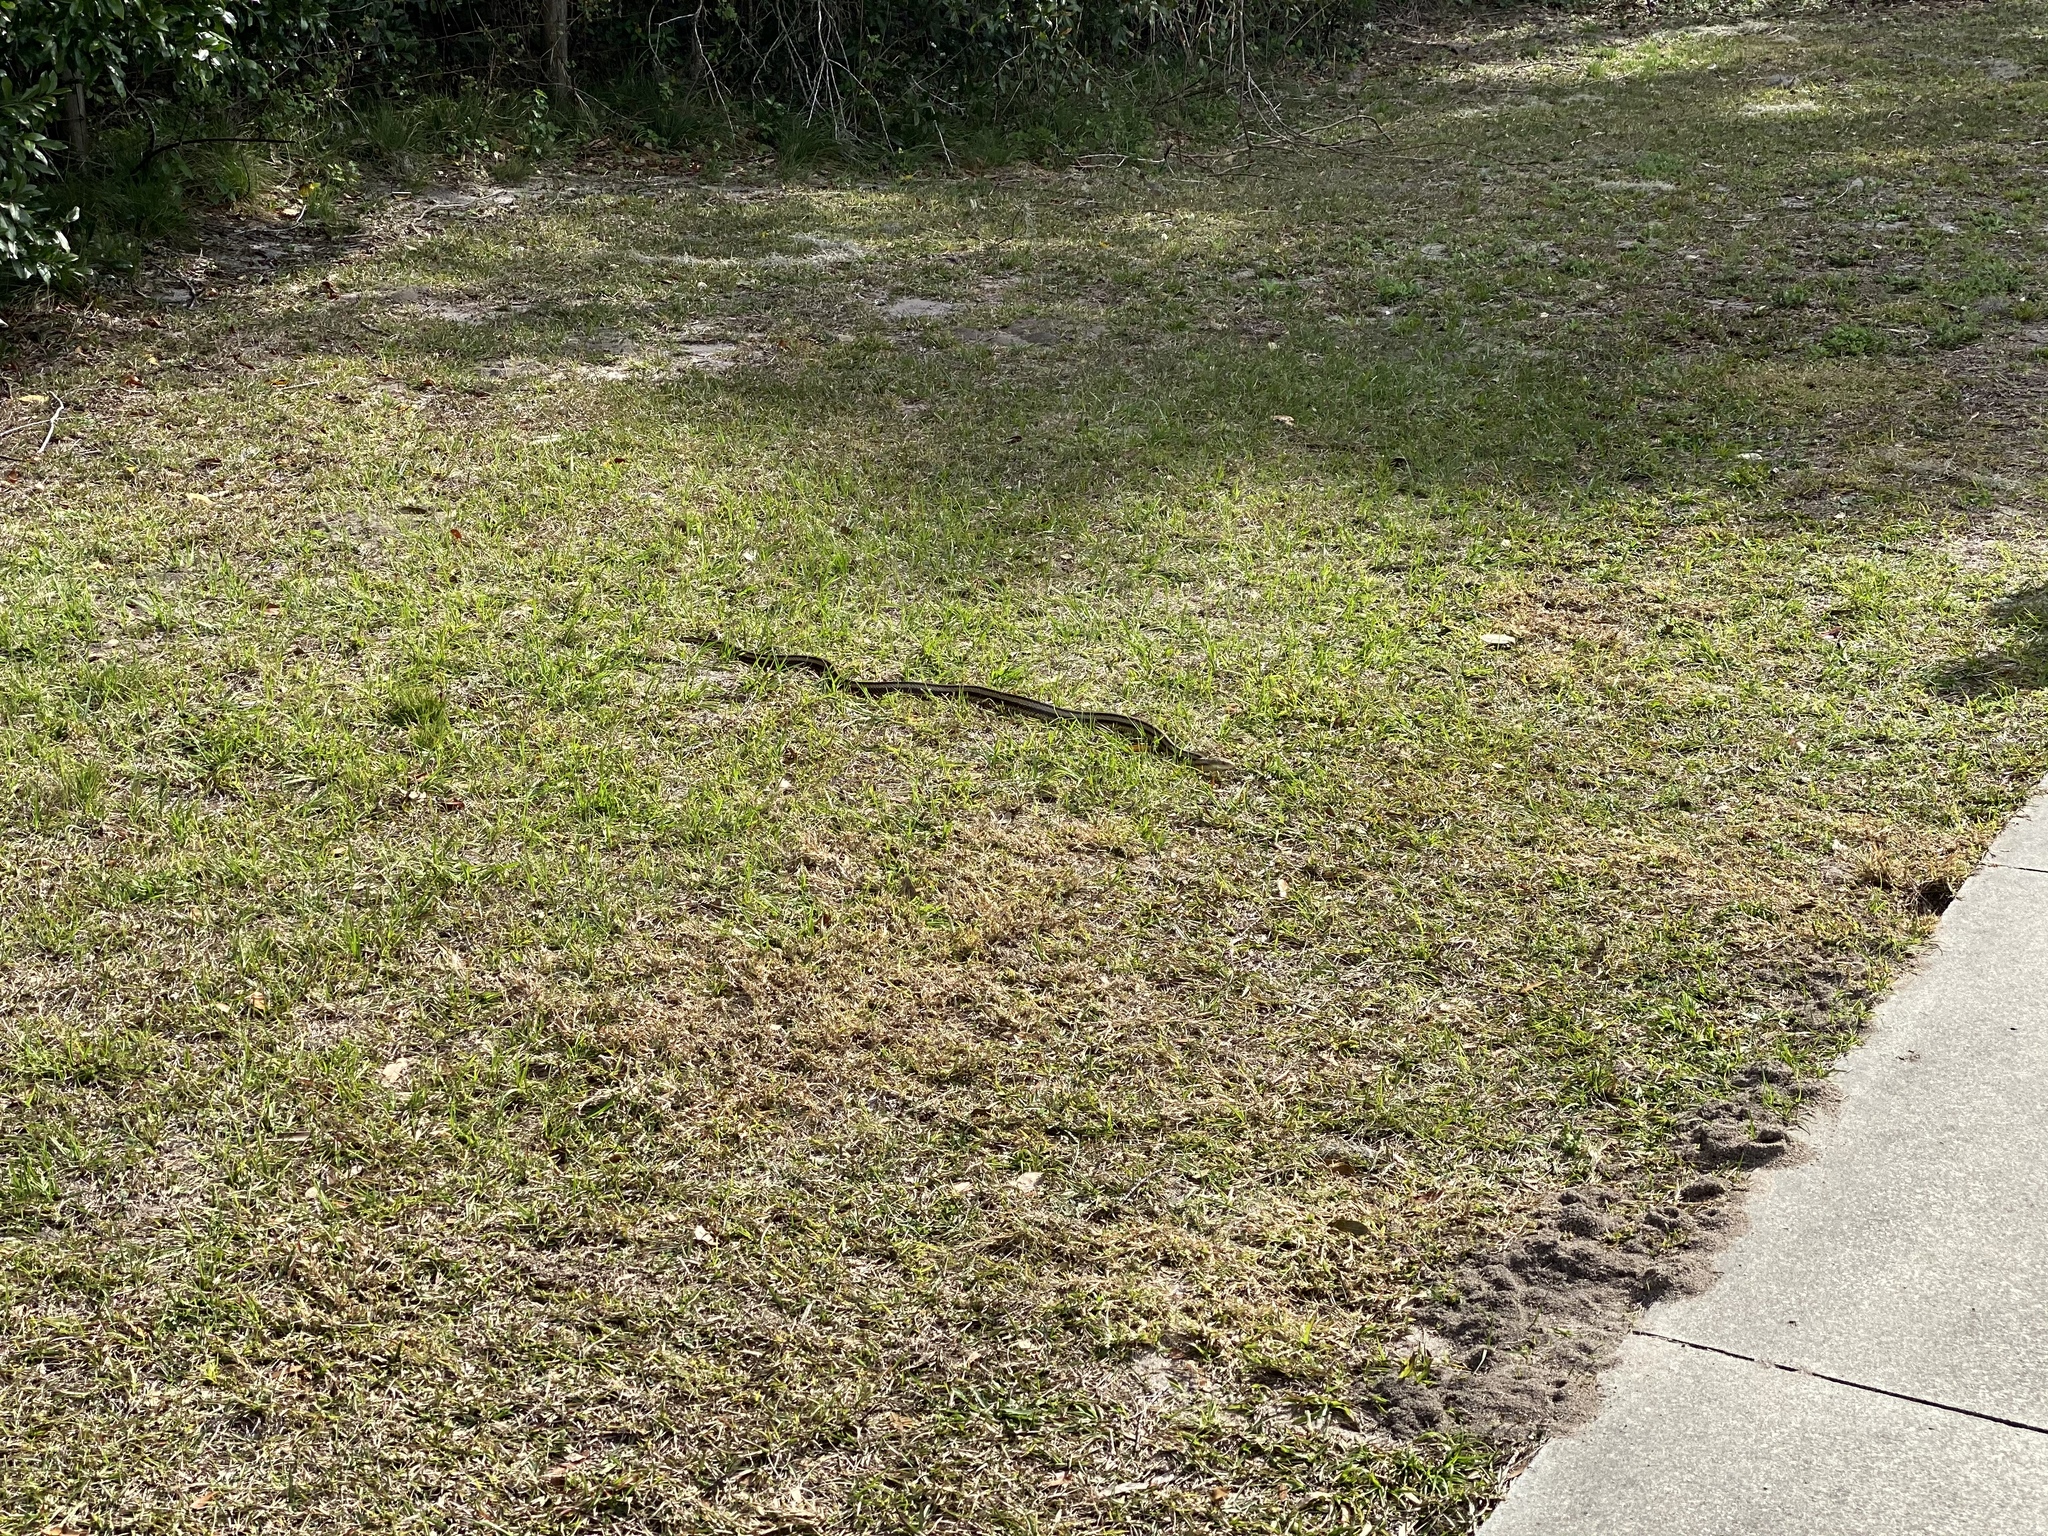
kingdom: Animalia
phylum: Chordata
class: Squamata
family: Colubridae
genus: Pantherophis
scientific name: Pantherophis alleghaniensis
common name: Eastern rat snake
